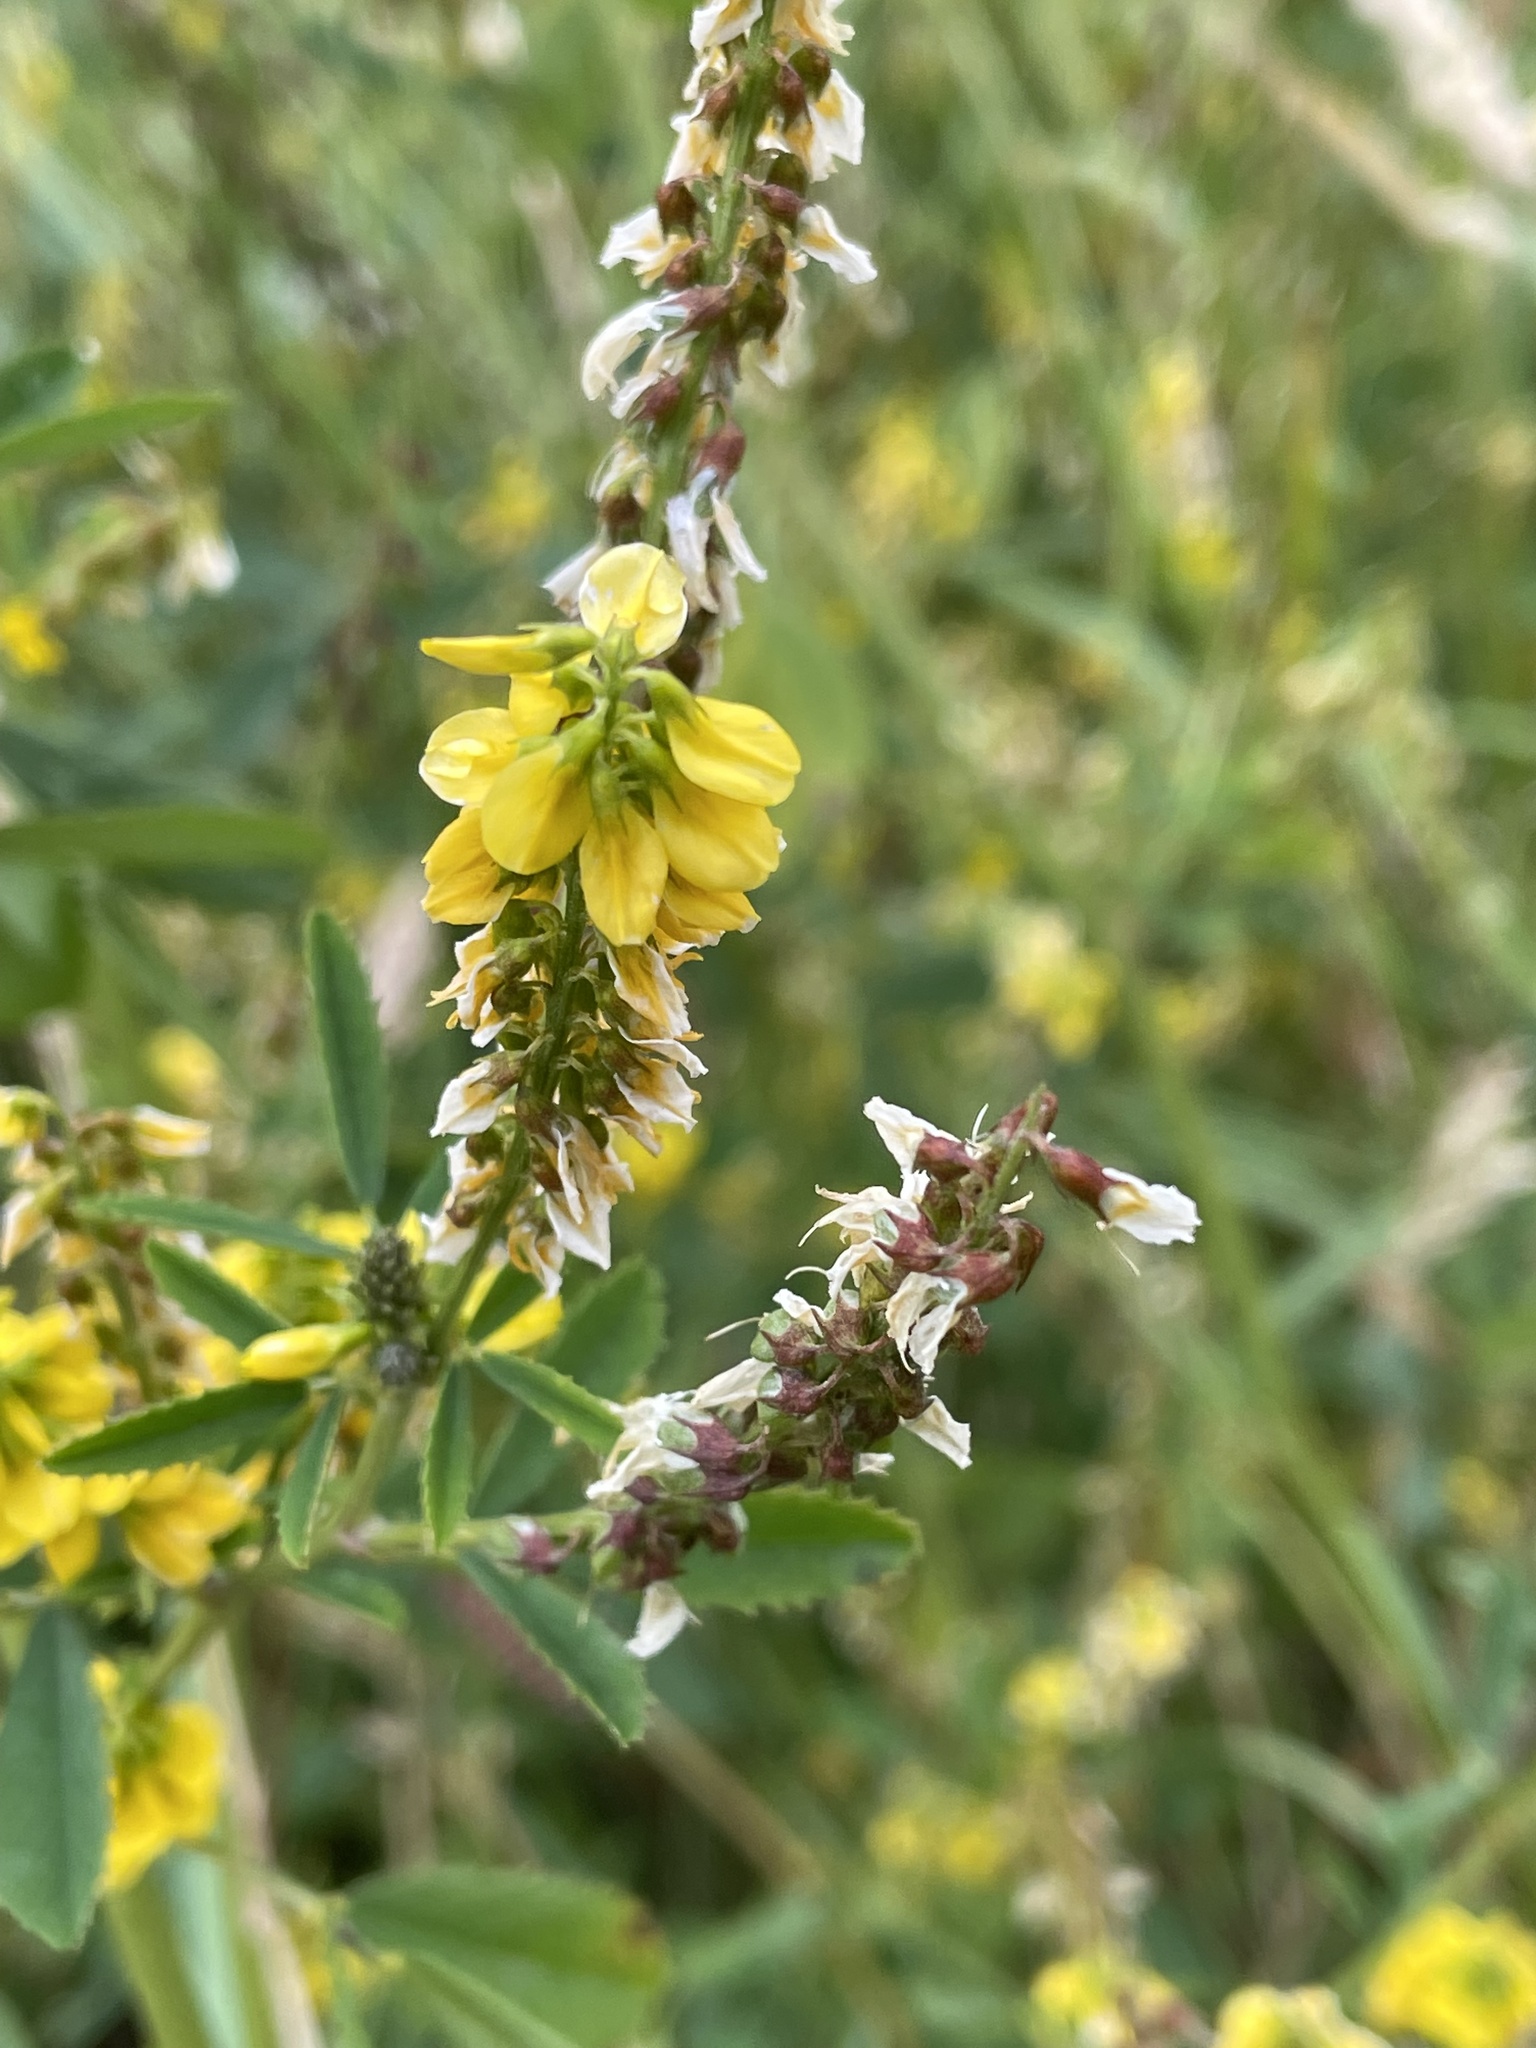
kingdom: Plantae
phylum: Tracheophyta
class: Magnoliopsida
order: Fabales
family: Fabaceae
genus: Melilotus
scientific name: Melilotus officinalis
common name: Sweetclover
